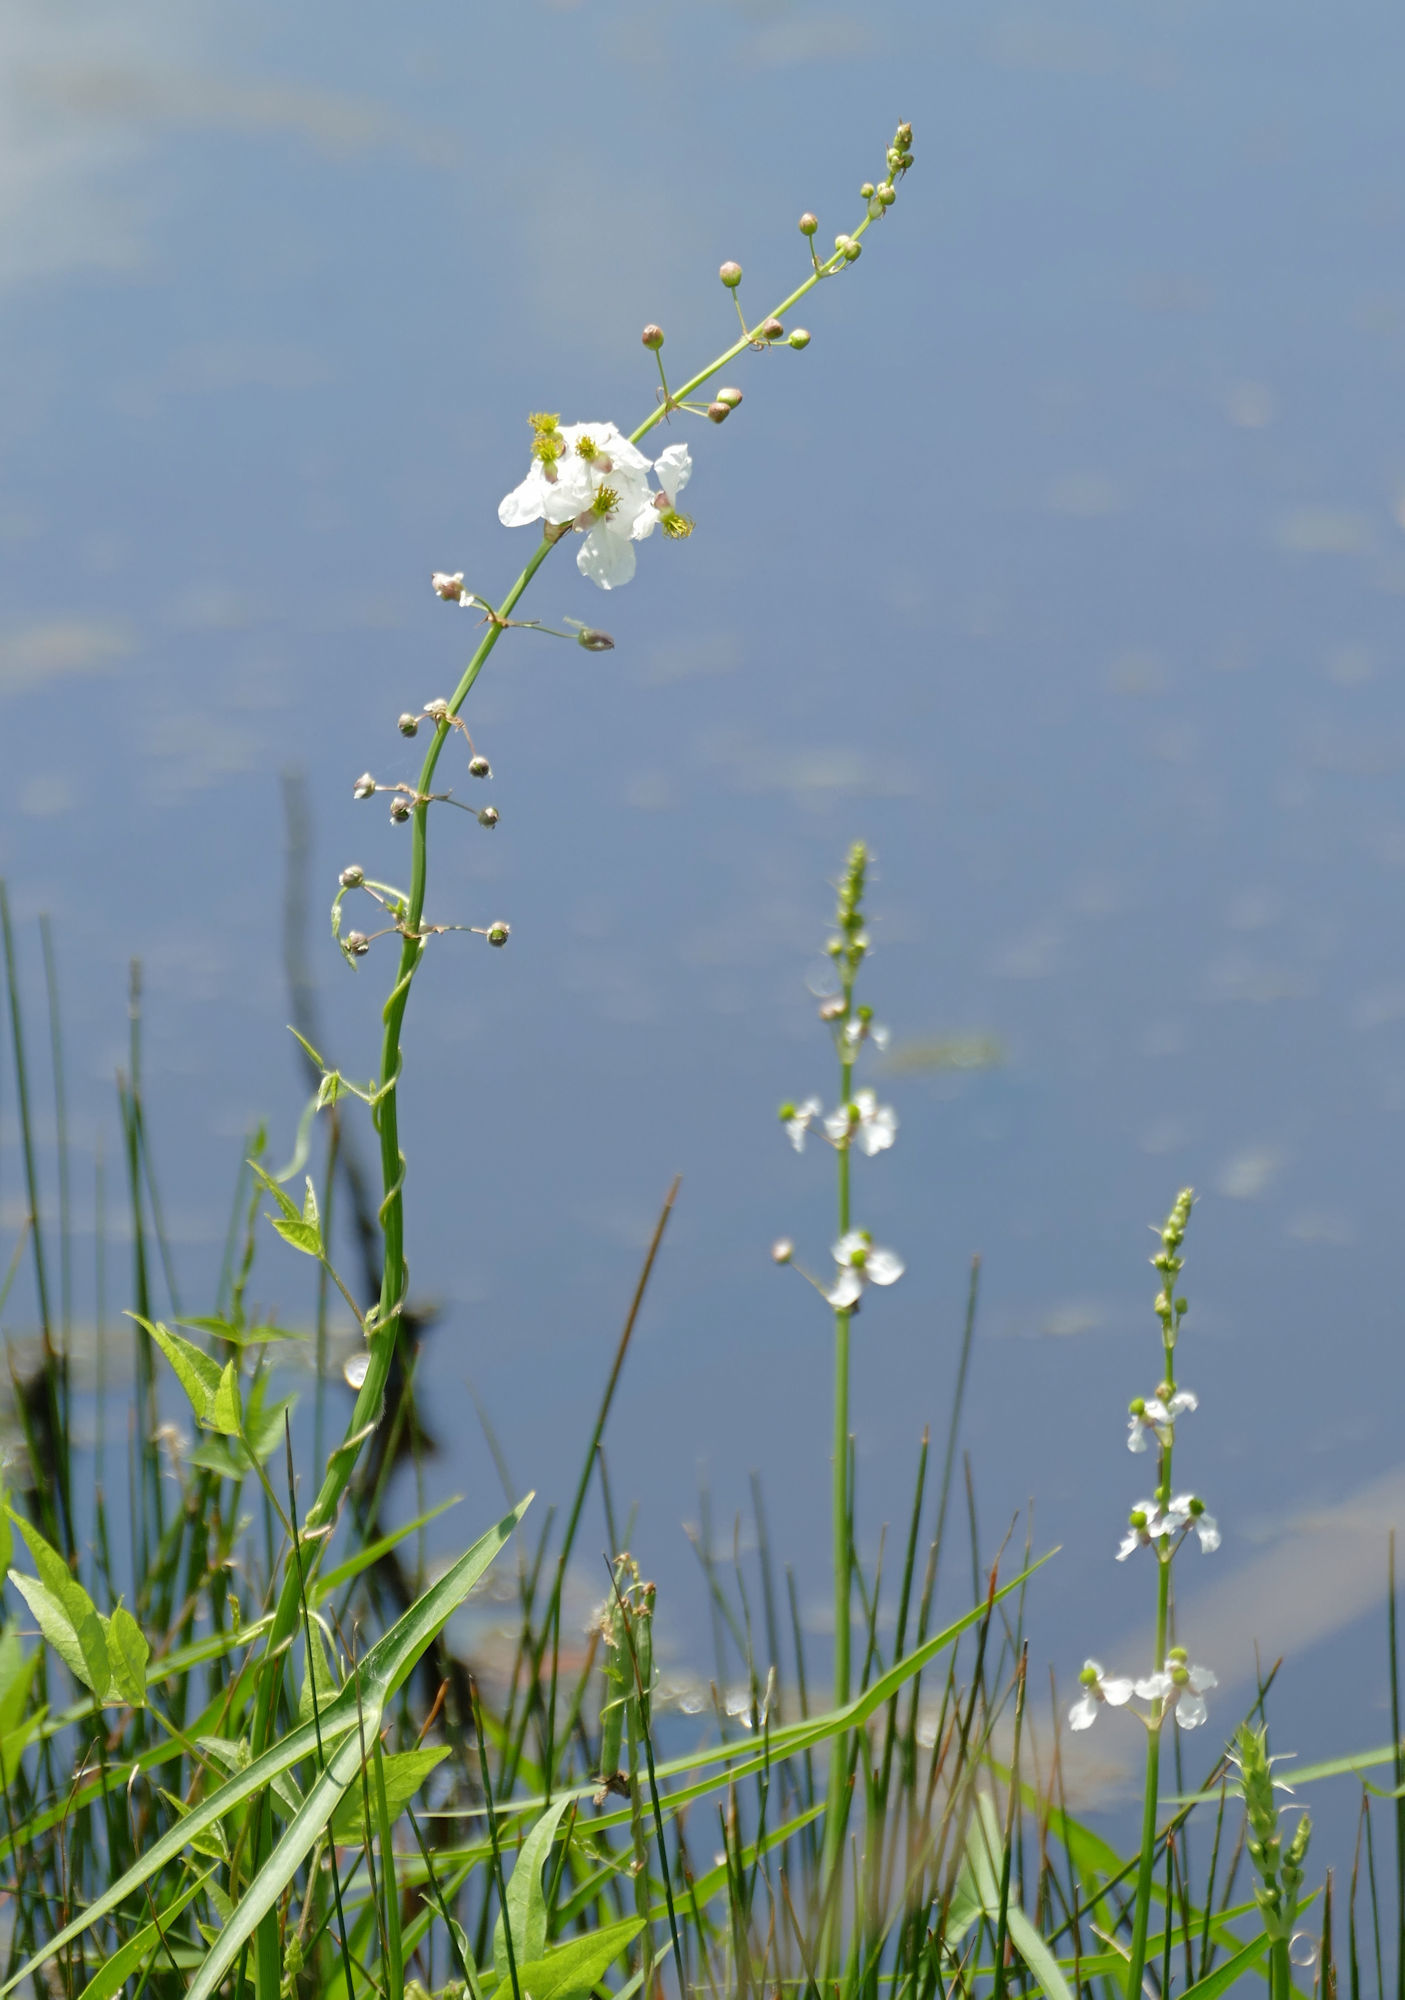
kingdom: Plantae
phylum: Tracheophyta
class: Liliopsida
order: Alismatales
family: Alismataceae
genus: Sagittaria
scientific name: Sagittaria longiloba
